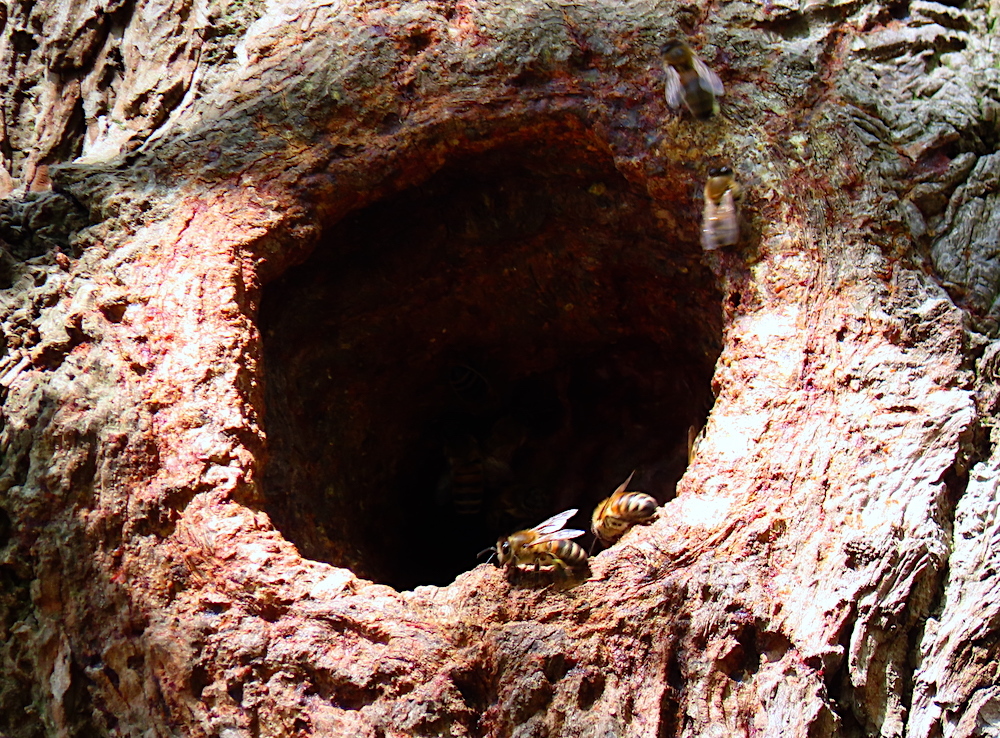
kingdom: Animalia
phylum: Arthropoda
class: Insecta
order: Hymenoptera
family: Apidae
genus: Apis
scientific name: Apis mellifera
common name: Honey bee
